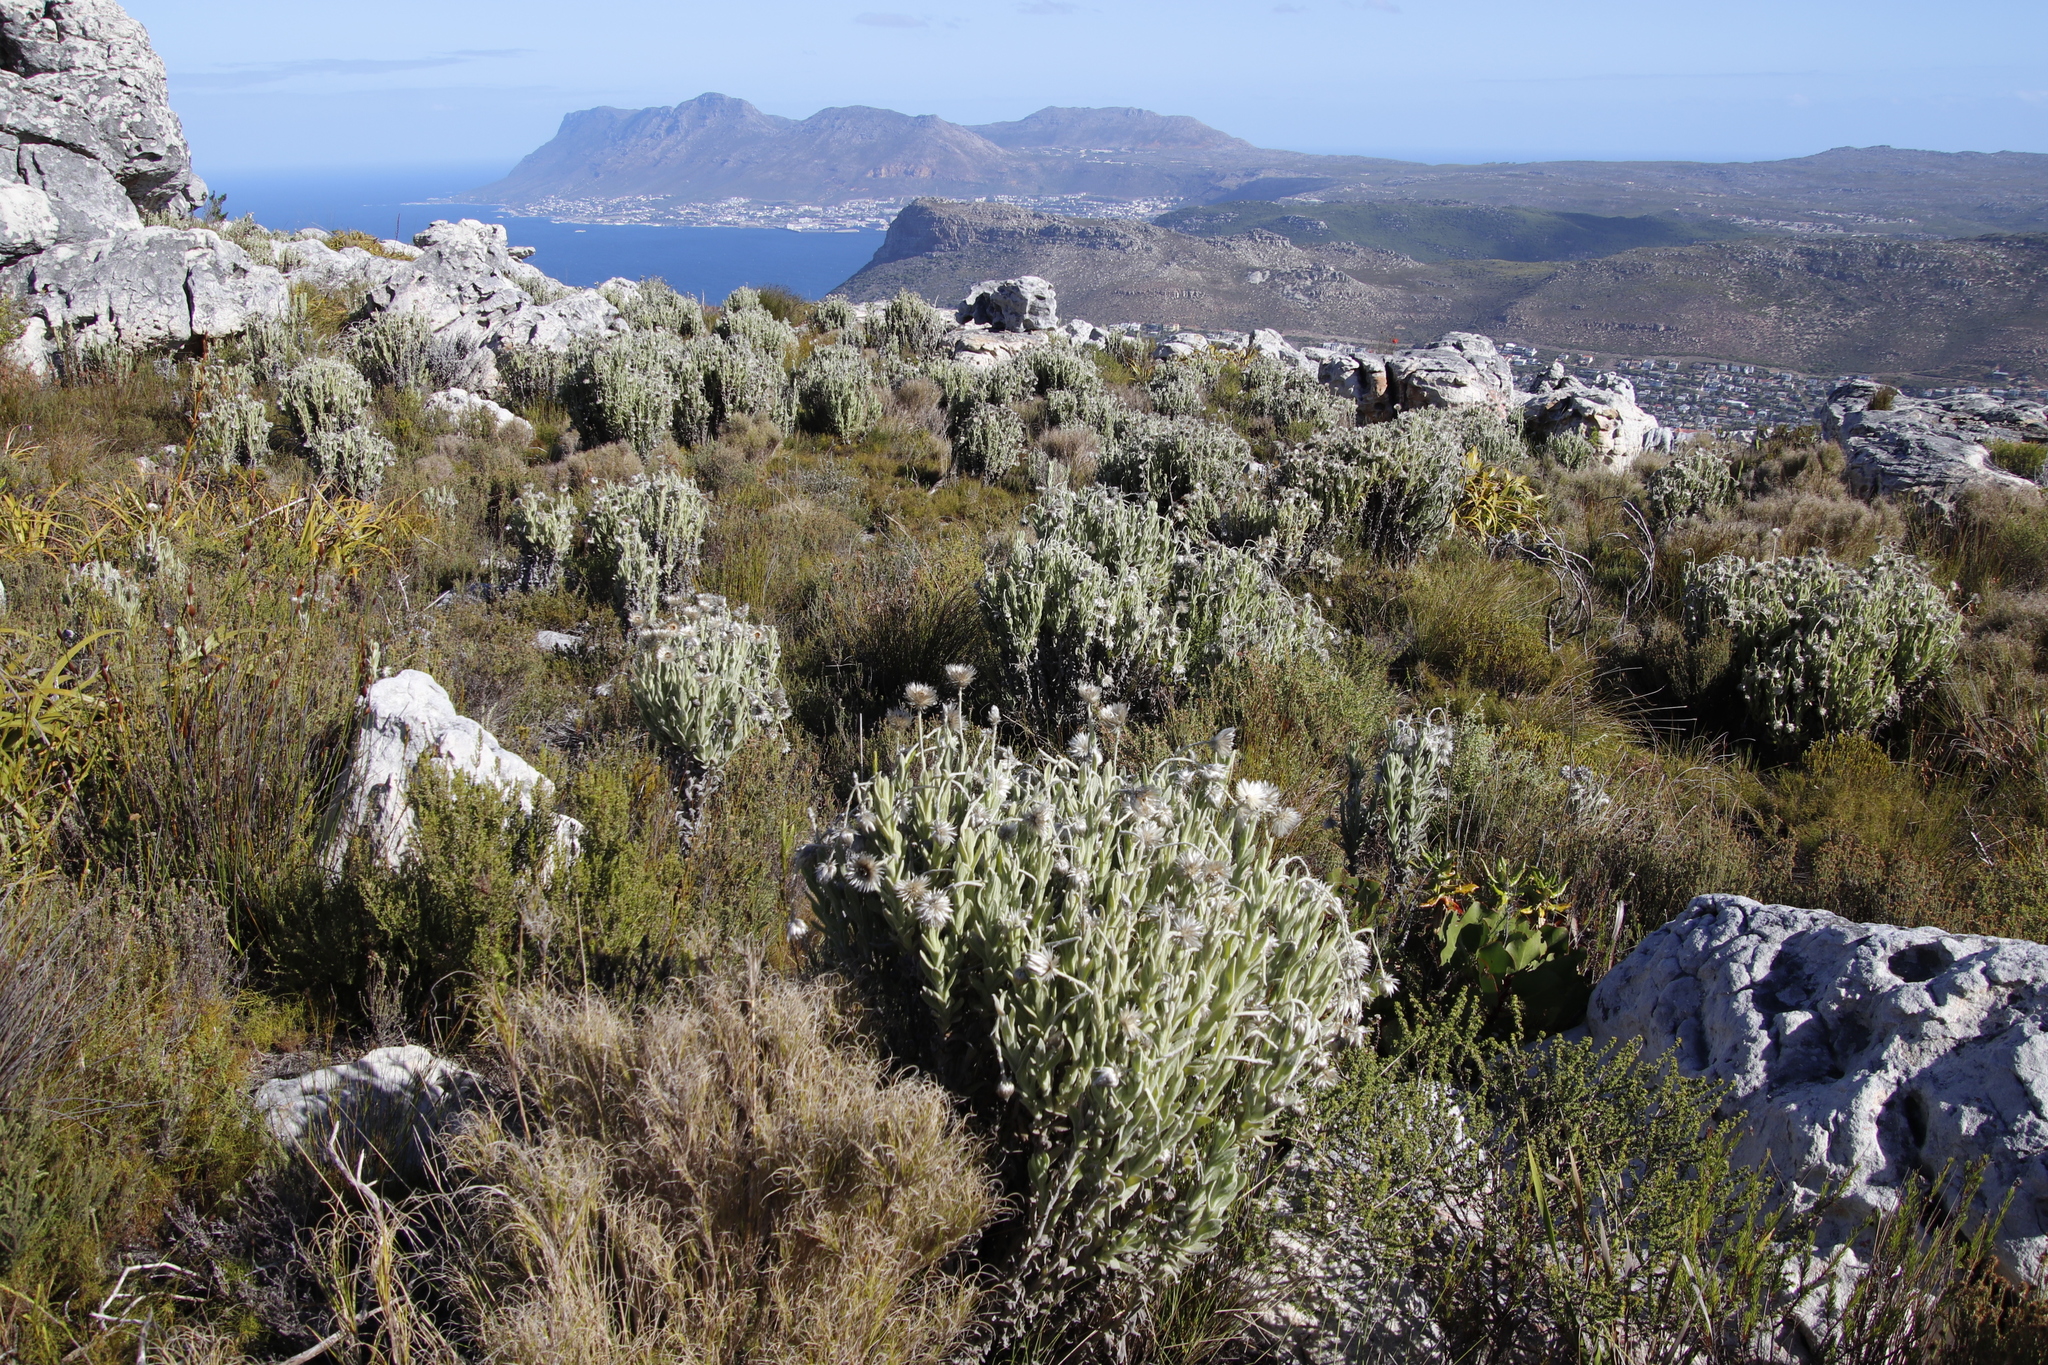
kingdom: Plantae
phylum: Tracheophyta
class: Magnoliopsida
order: Asterales
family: Asteraceae
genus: Syncarpha
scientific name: Syncarpha vestita
